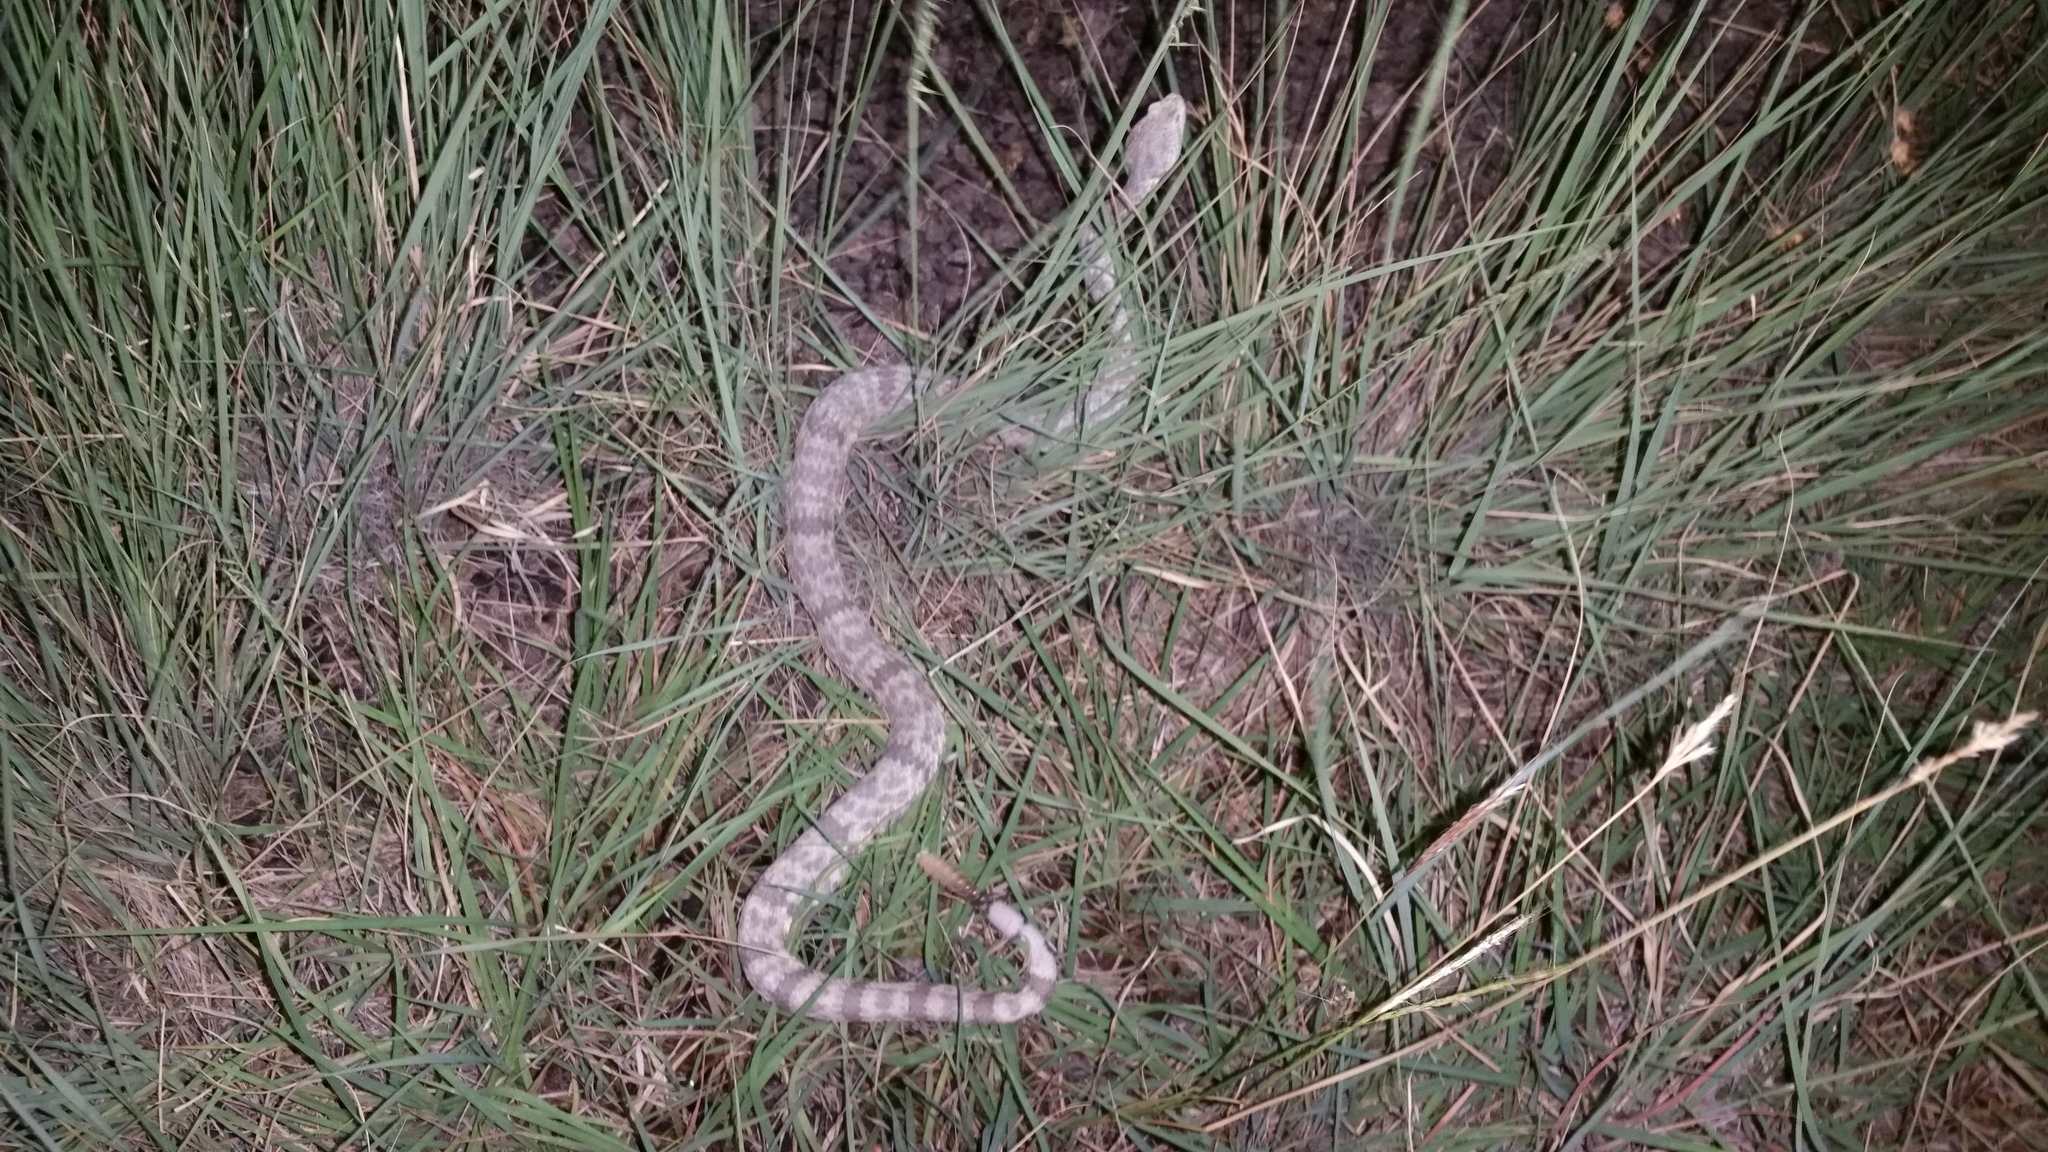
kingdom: Animalia
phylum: Chordata
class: Squamata
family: Viperidae
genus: Crotalus
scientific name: Crotalus lepidus
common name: Rock rattlesnake
